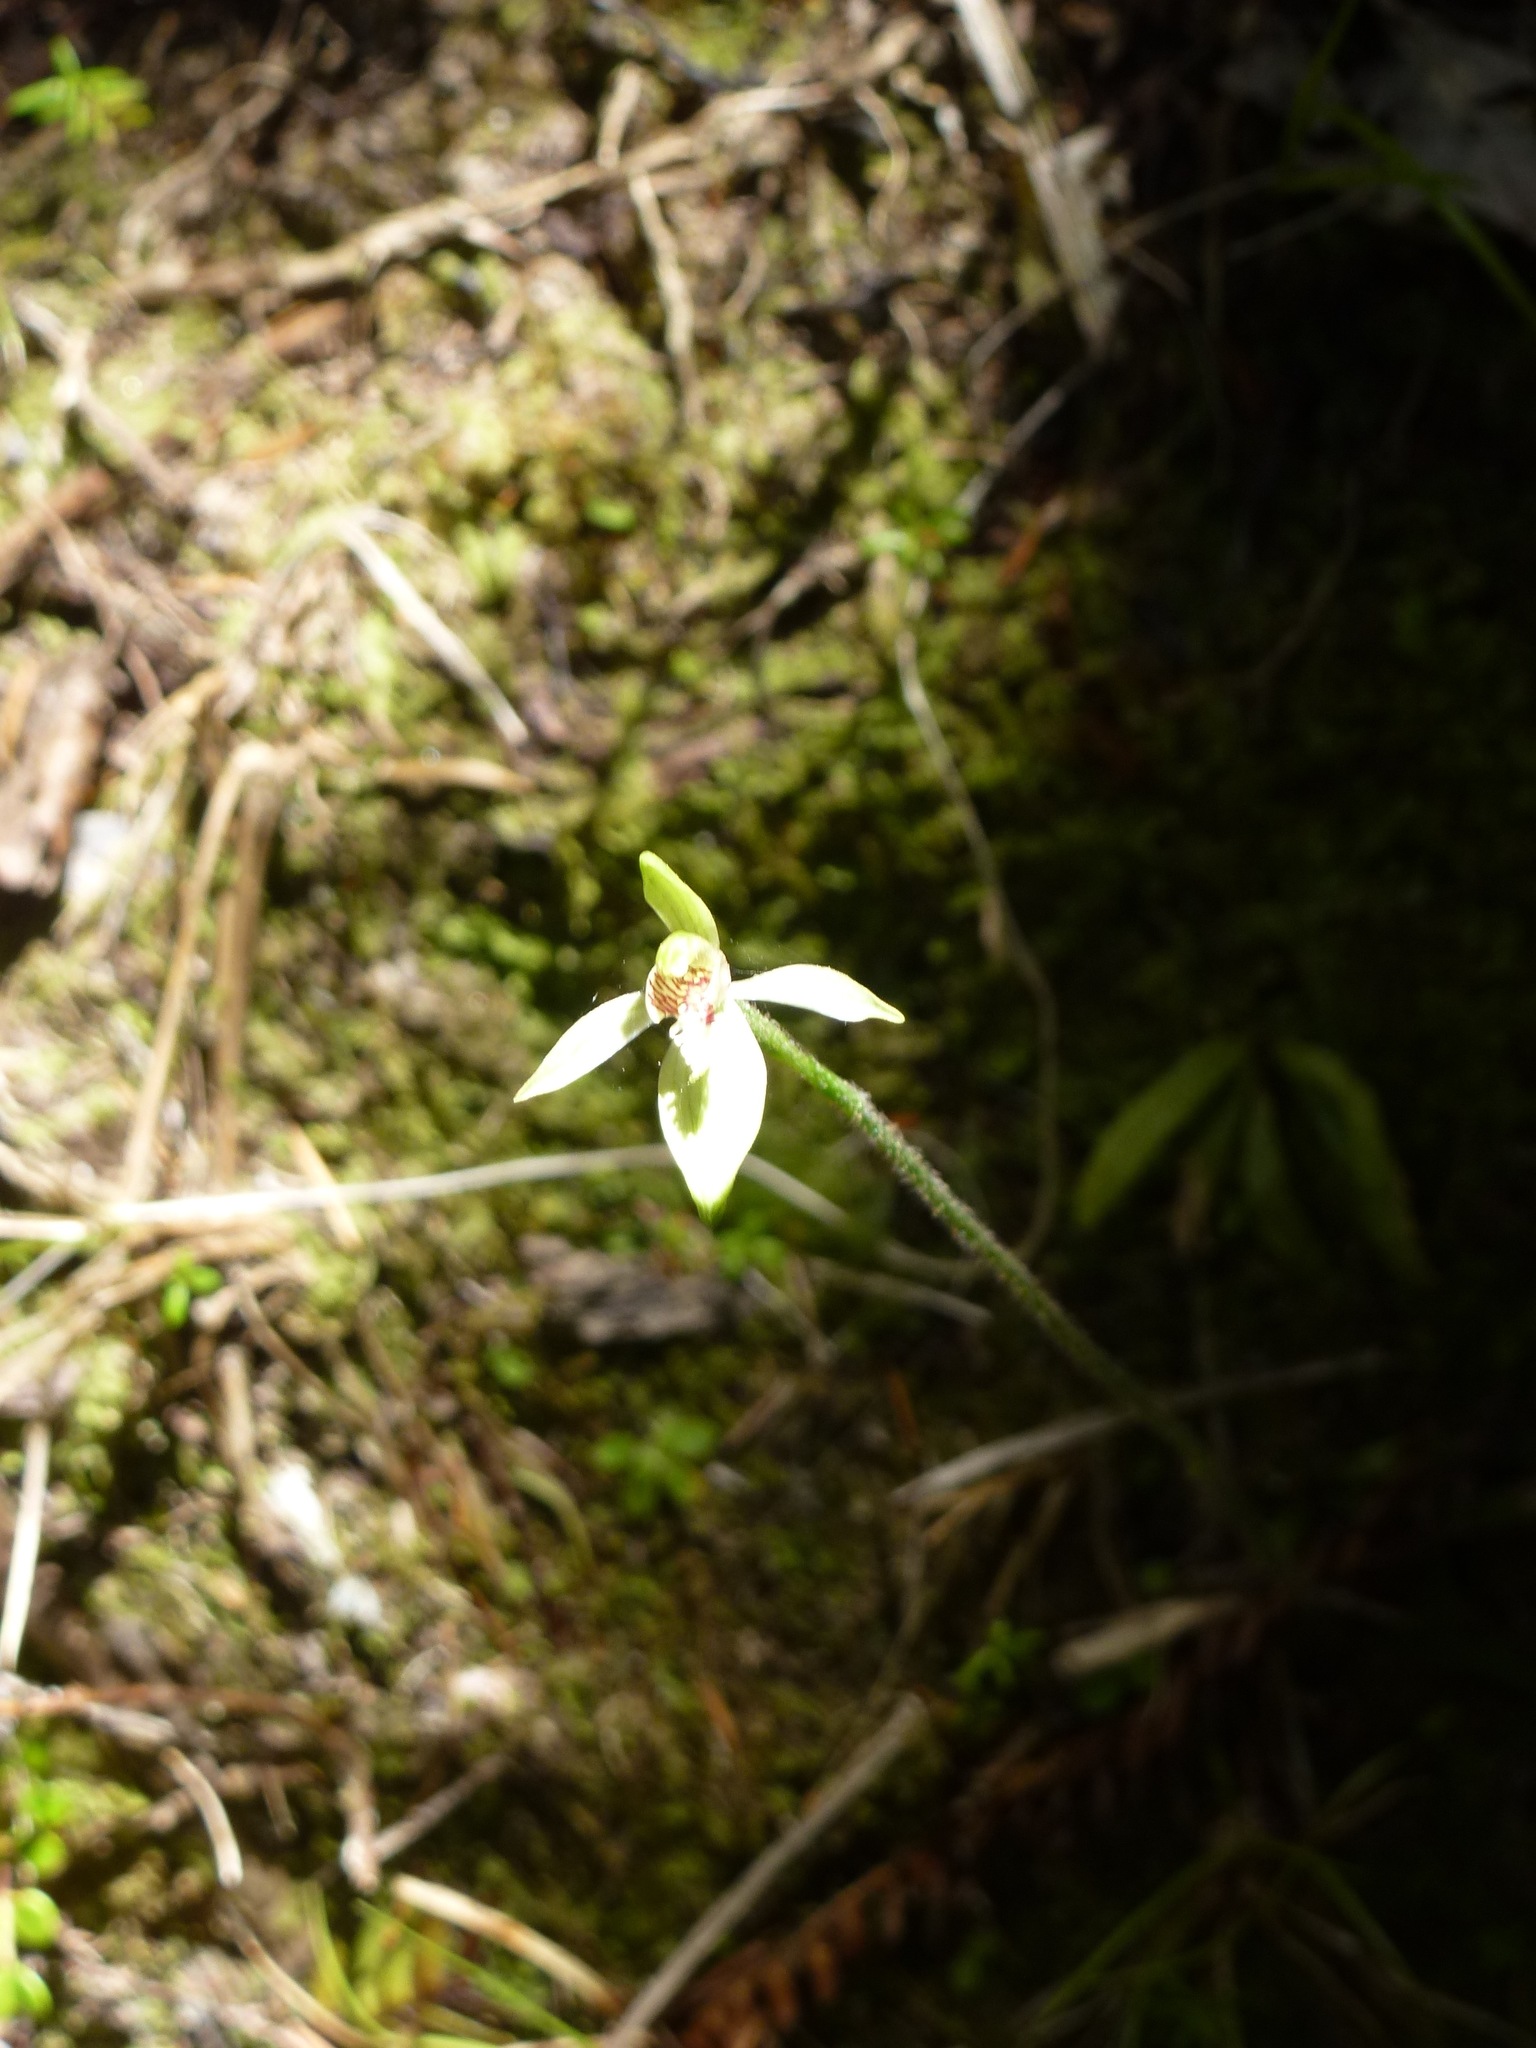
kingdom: Plantae
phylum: Tracheophyta
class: Liliopsida
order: Asparagales
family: Orchidaceae
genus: Caladenia
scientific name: Caladenia chlorostyla
